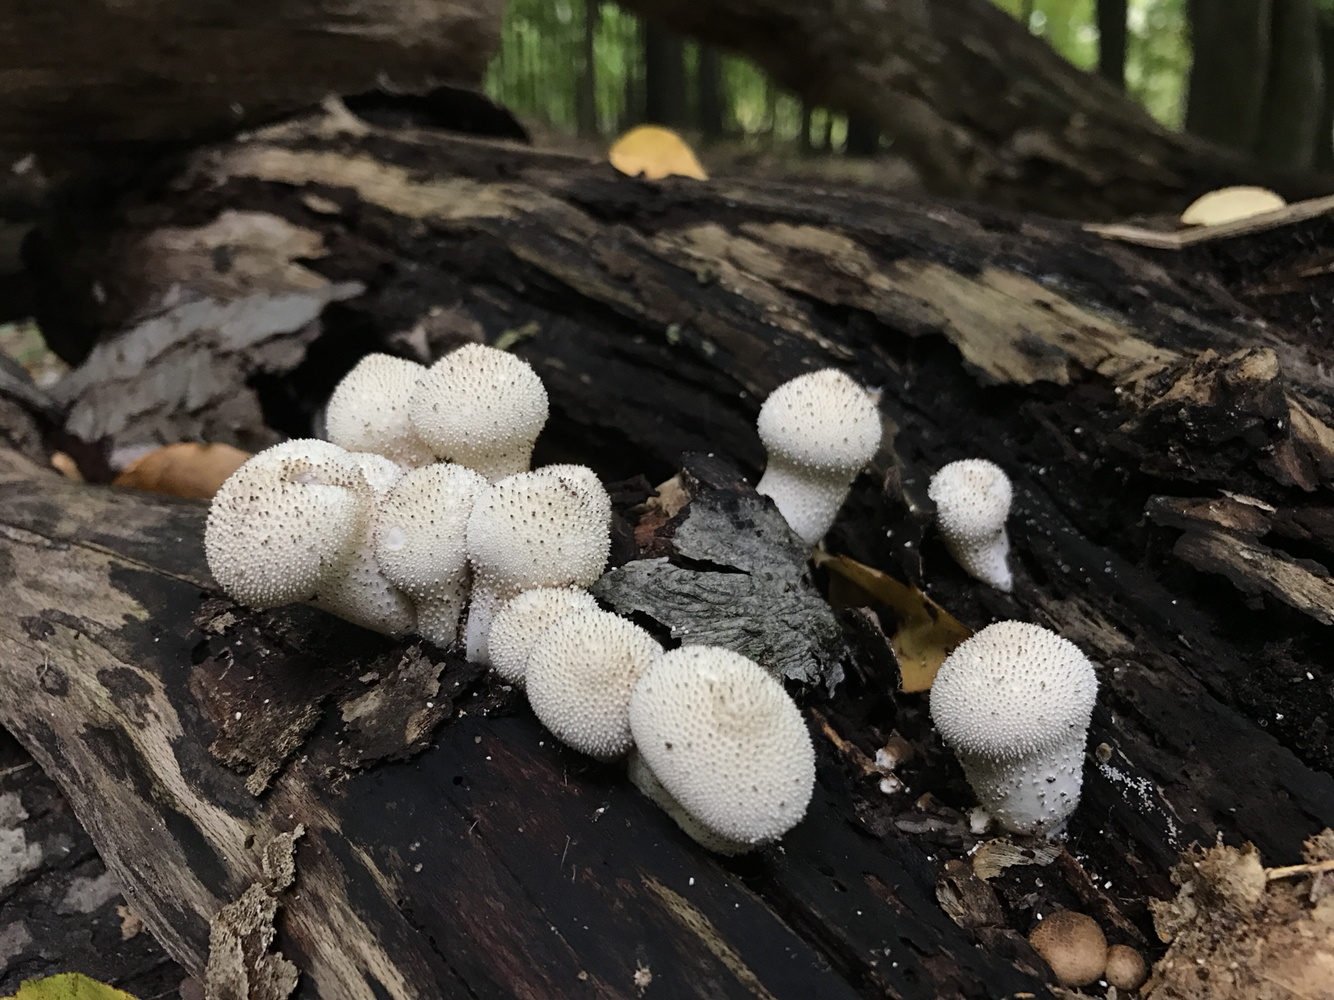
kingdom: Fungi
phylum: Basidiomycota
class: Agaricomycetes
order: Agaricales
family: Lycoperdaceae
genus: Lycoperdon
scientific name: Lycoperdon perlatum
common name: Common puffball
